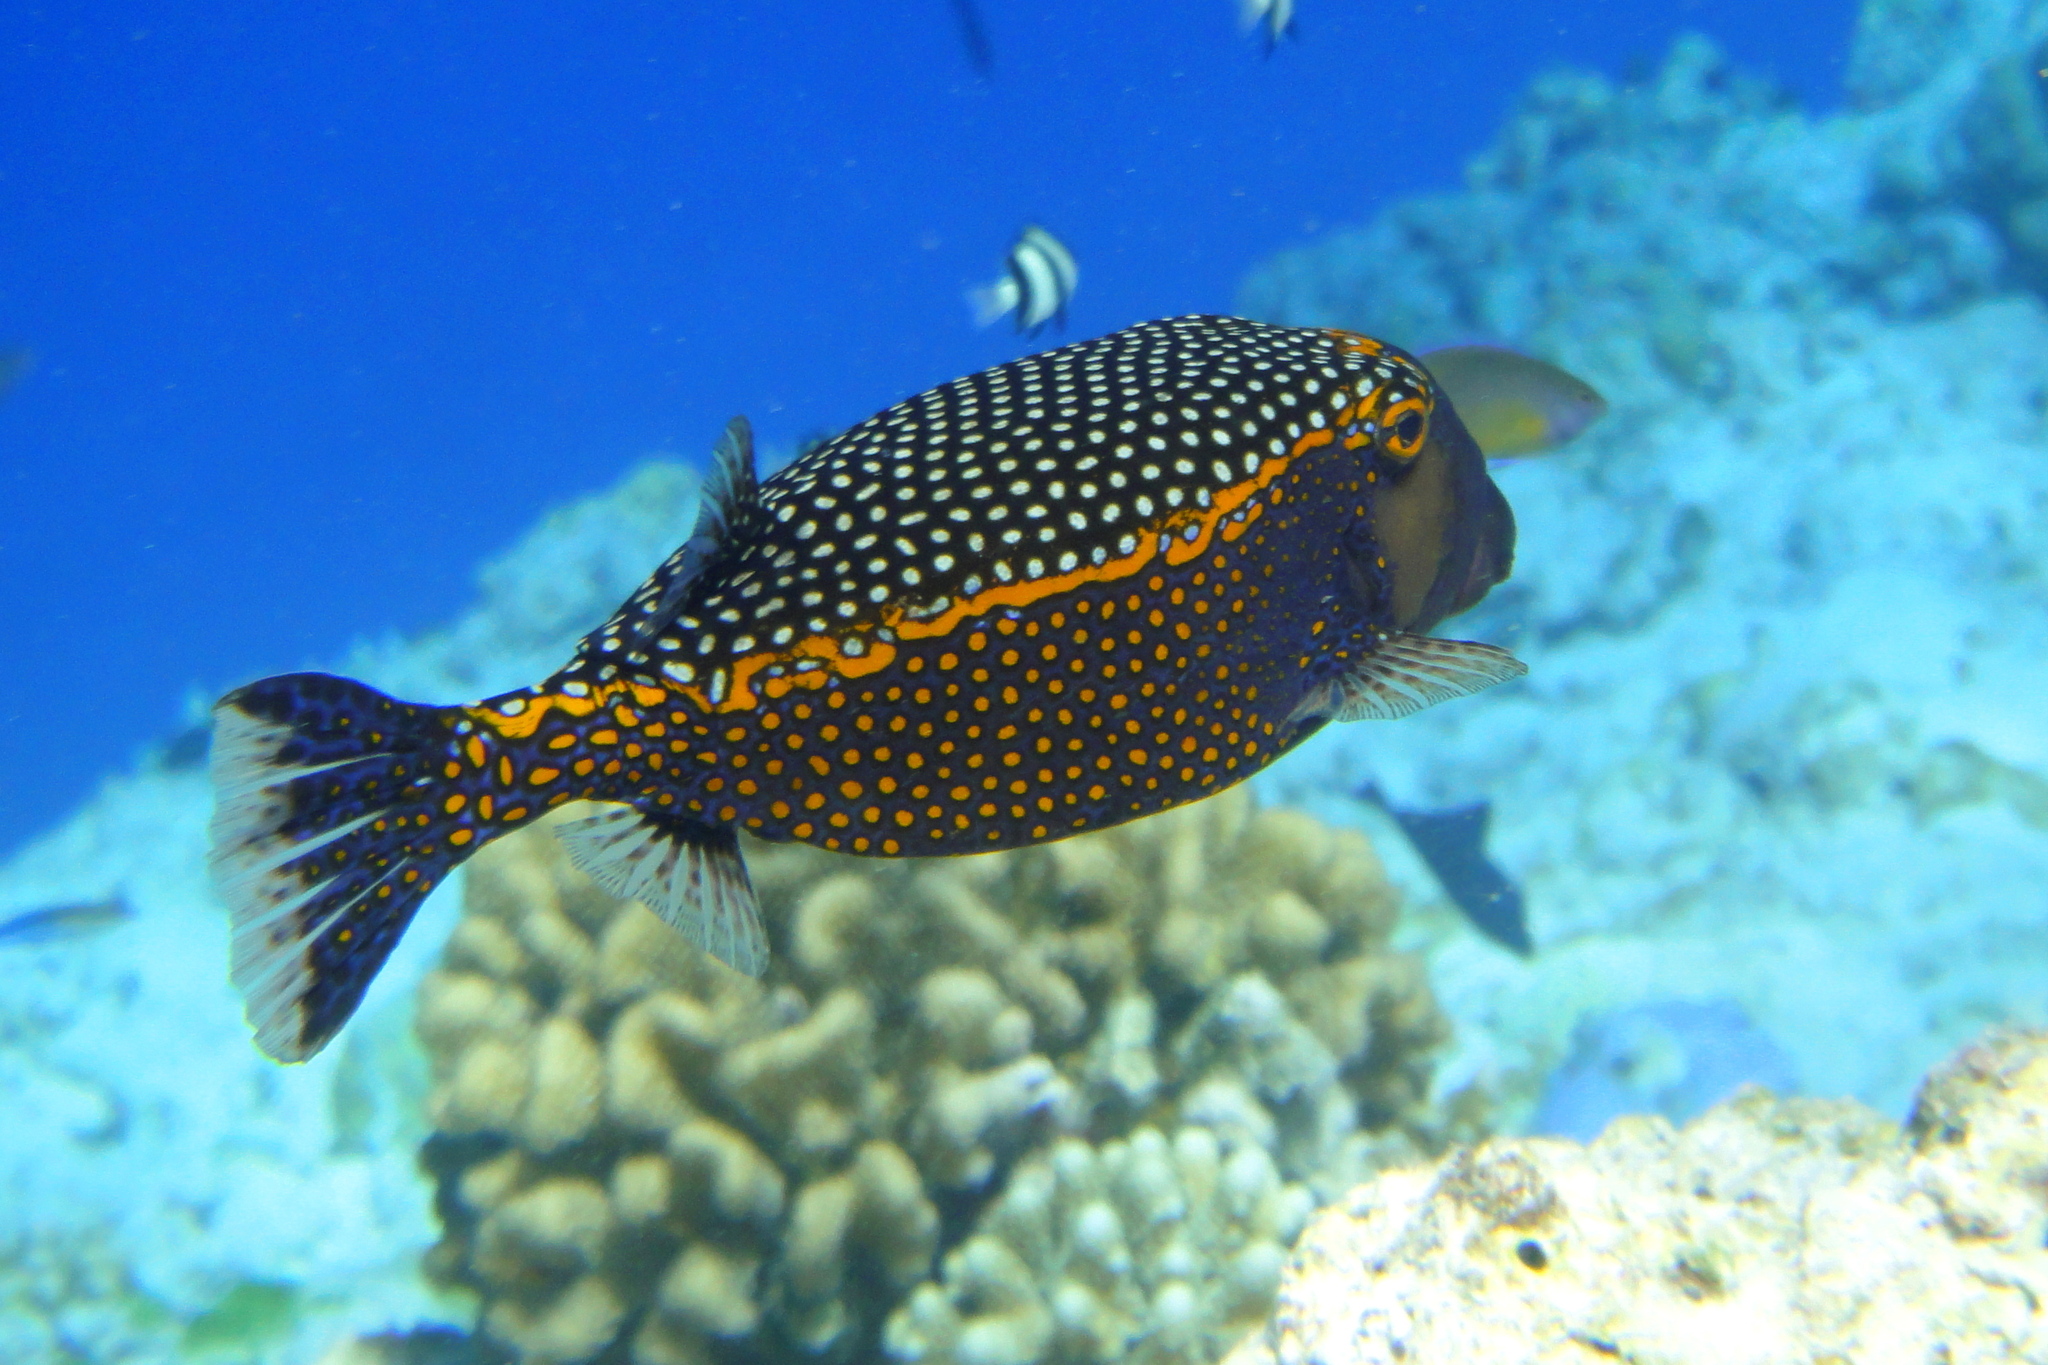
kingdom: Animalia
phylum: Chordata
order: Tetraodontiformes
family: Ostraciidae
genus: Ostracion
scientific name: Ostracion meleagris
